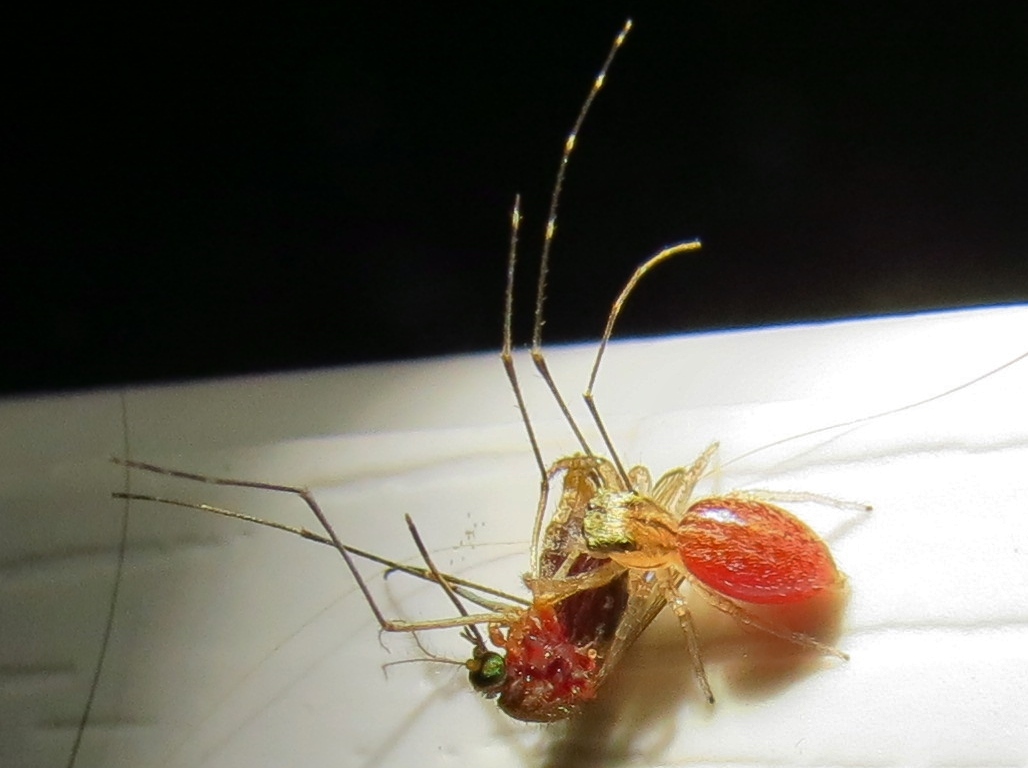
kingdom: Animalia
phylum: Arthropoda
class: Arachnida
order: Araneae
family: Salticidae
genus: Maevia
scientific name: Maevia inclemens
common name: Dimorphic jumper
